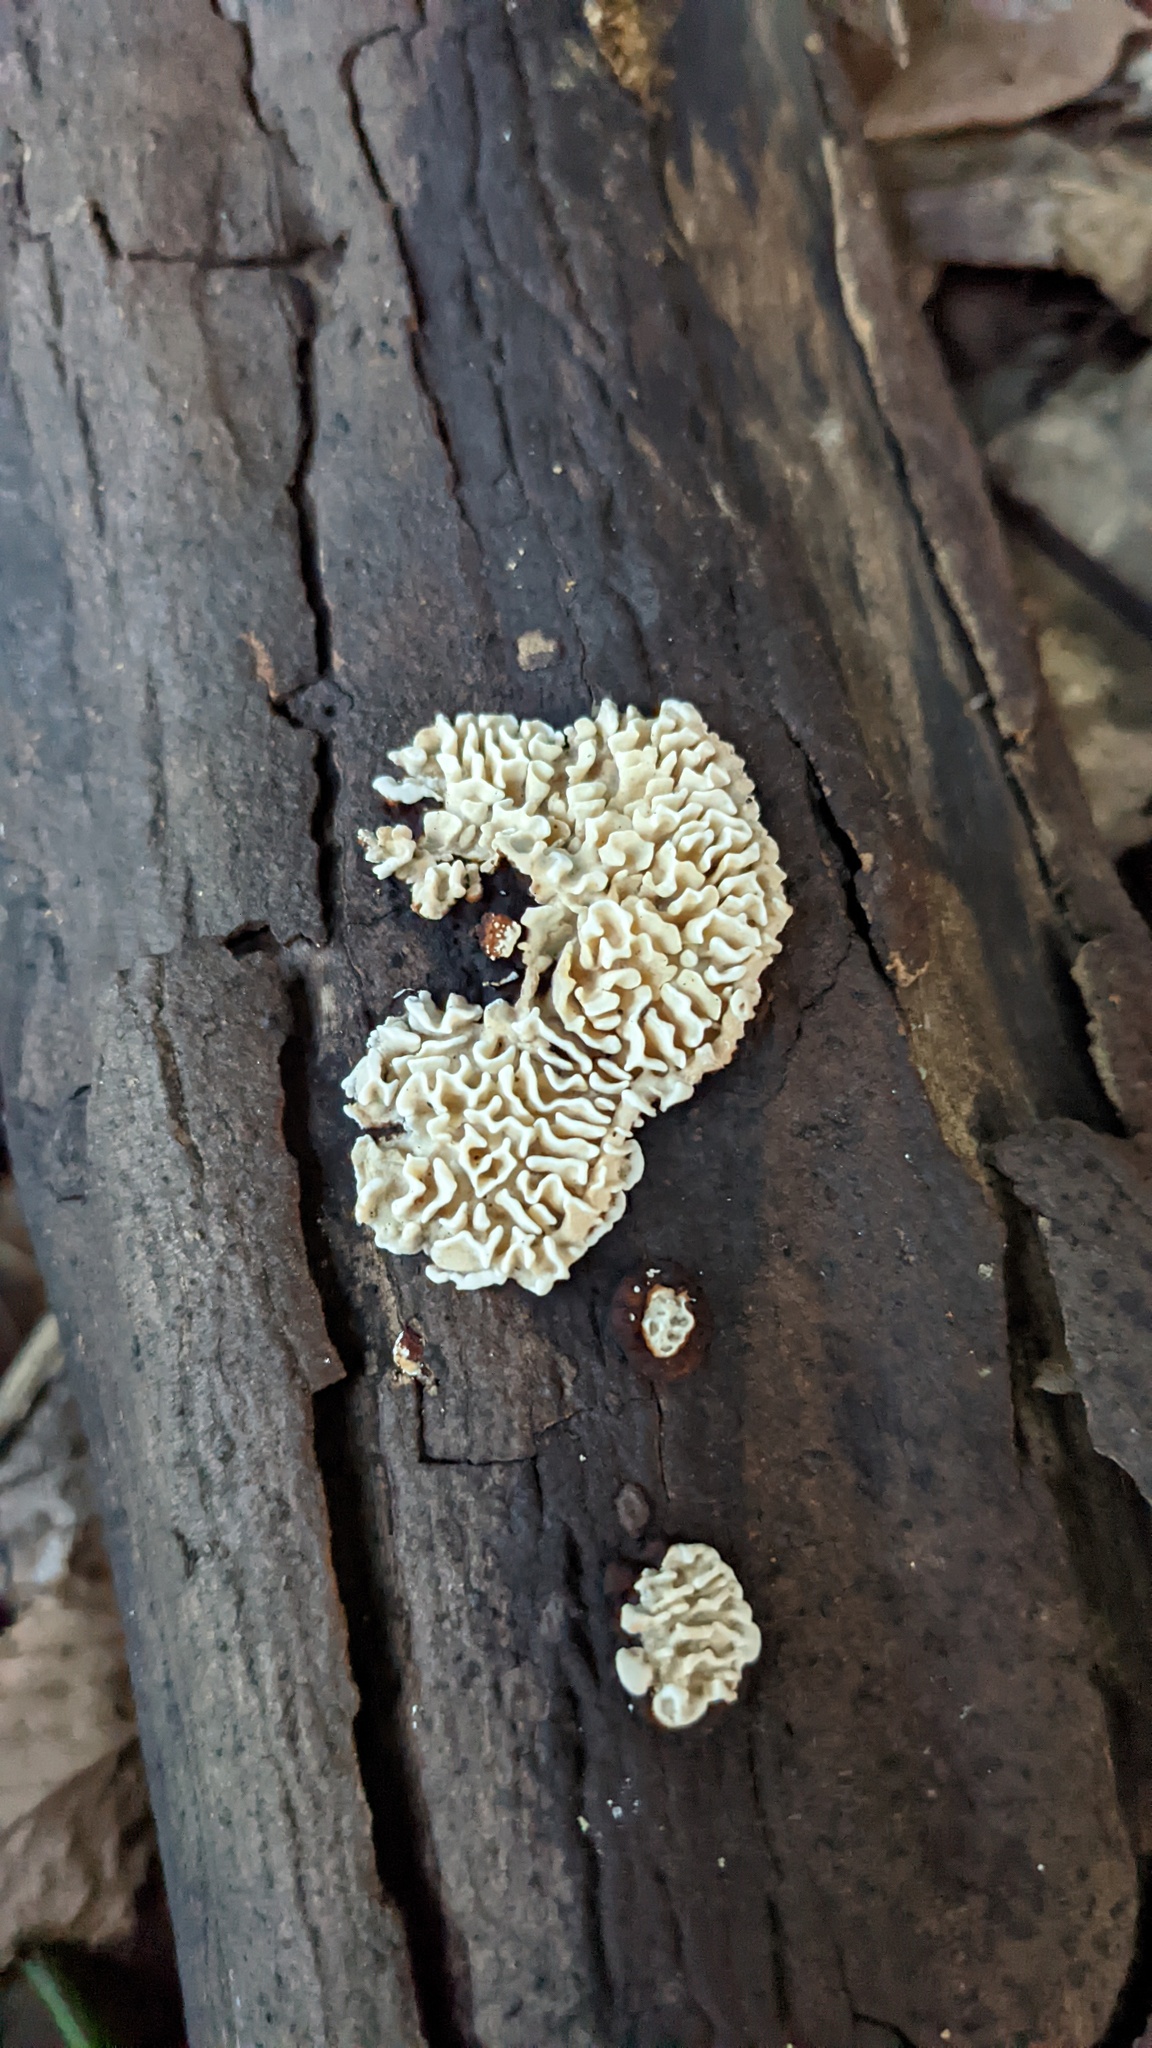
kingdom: Fungi
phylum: Basidiomycota
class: Agaricomycetes
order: Polyporales
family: Polyporaceae
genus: Lenzites
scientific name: Lenzites styracinus
